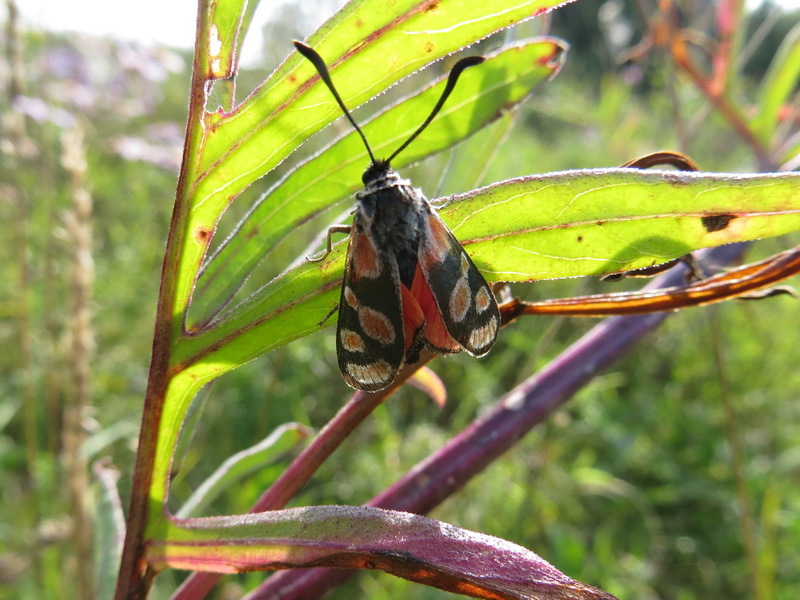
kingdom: Animalia
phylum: Arthropoda
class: Insecta
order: Lepidoptera
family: Zygaenidae
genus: Zygaena
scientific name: Zygaena carniolica
